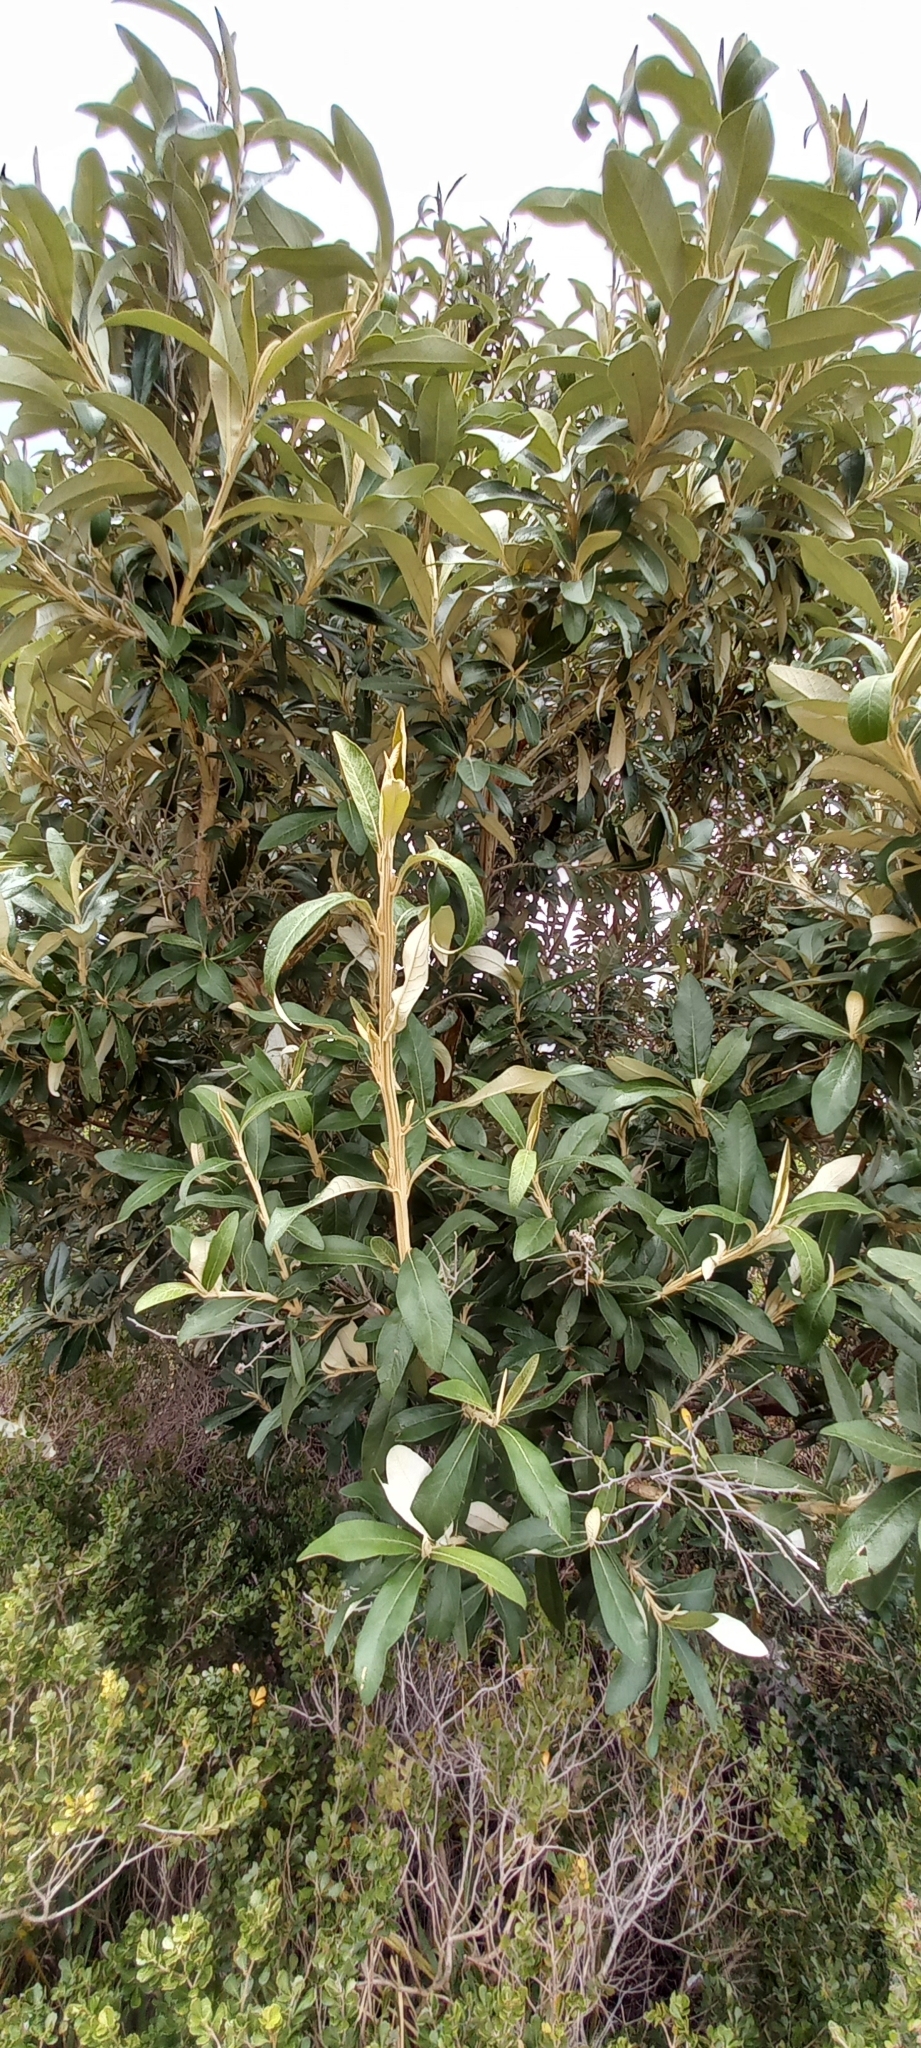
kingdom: Plantae
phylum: Tracheophyta
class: Magnoliopsida
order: Asterales
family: Asteraceae
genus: Tarchonanthus
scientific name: Tarchonanthus littoralis
